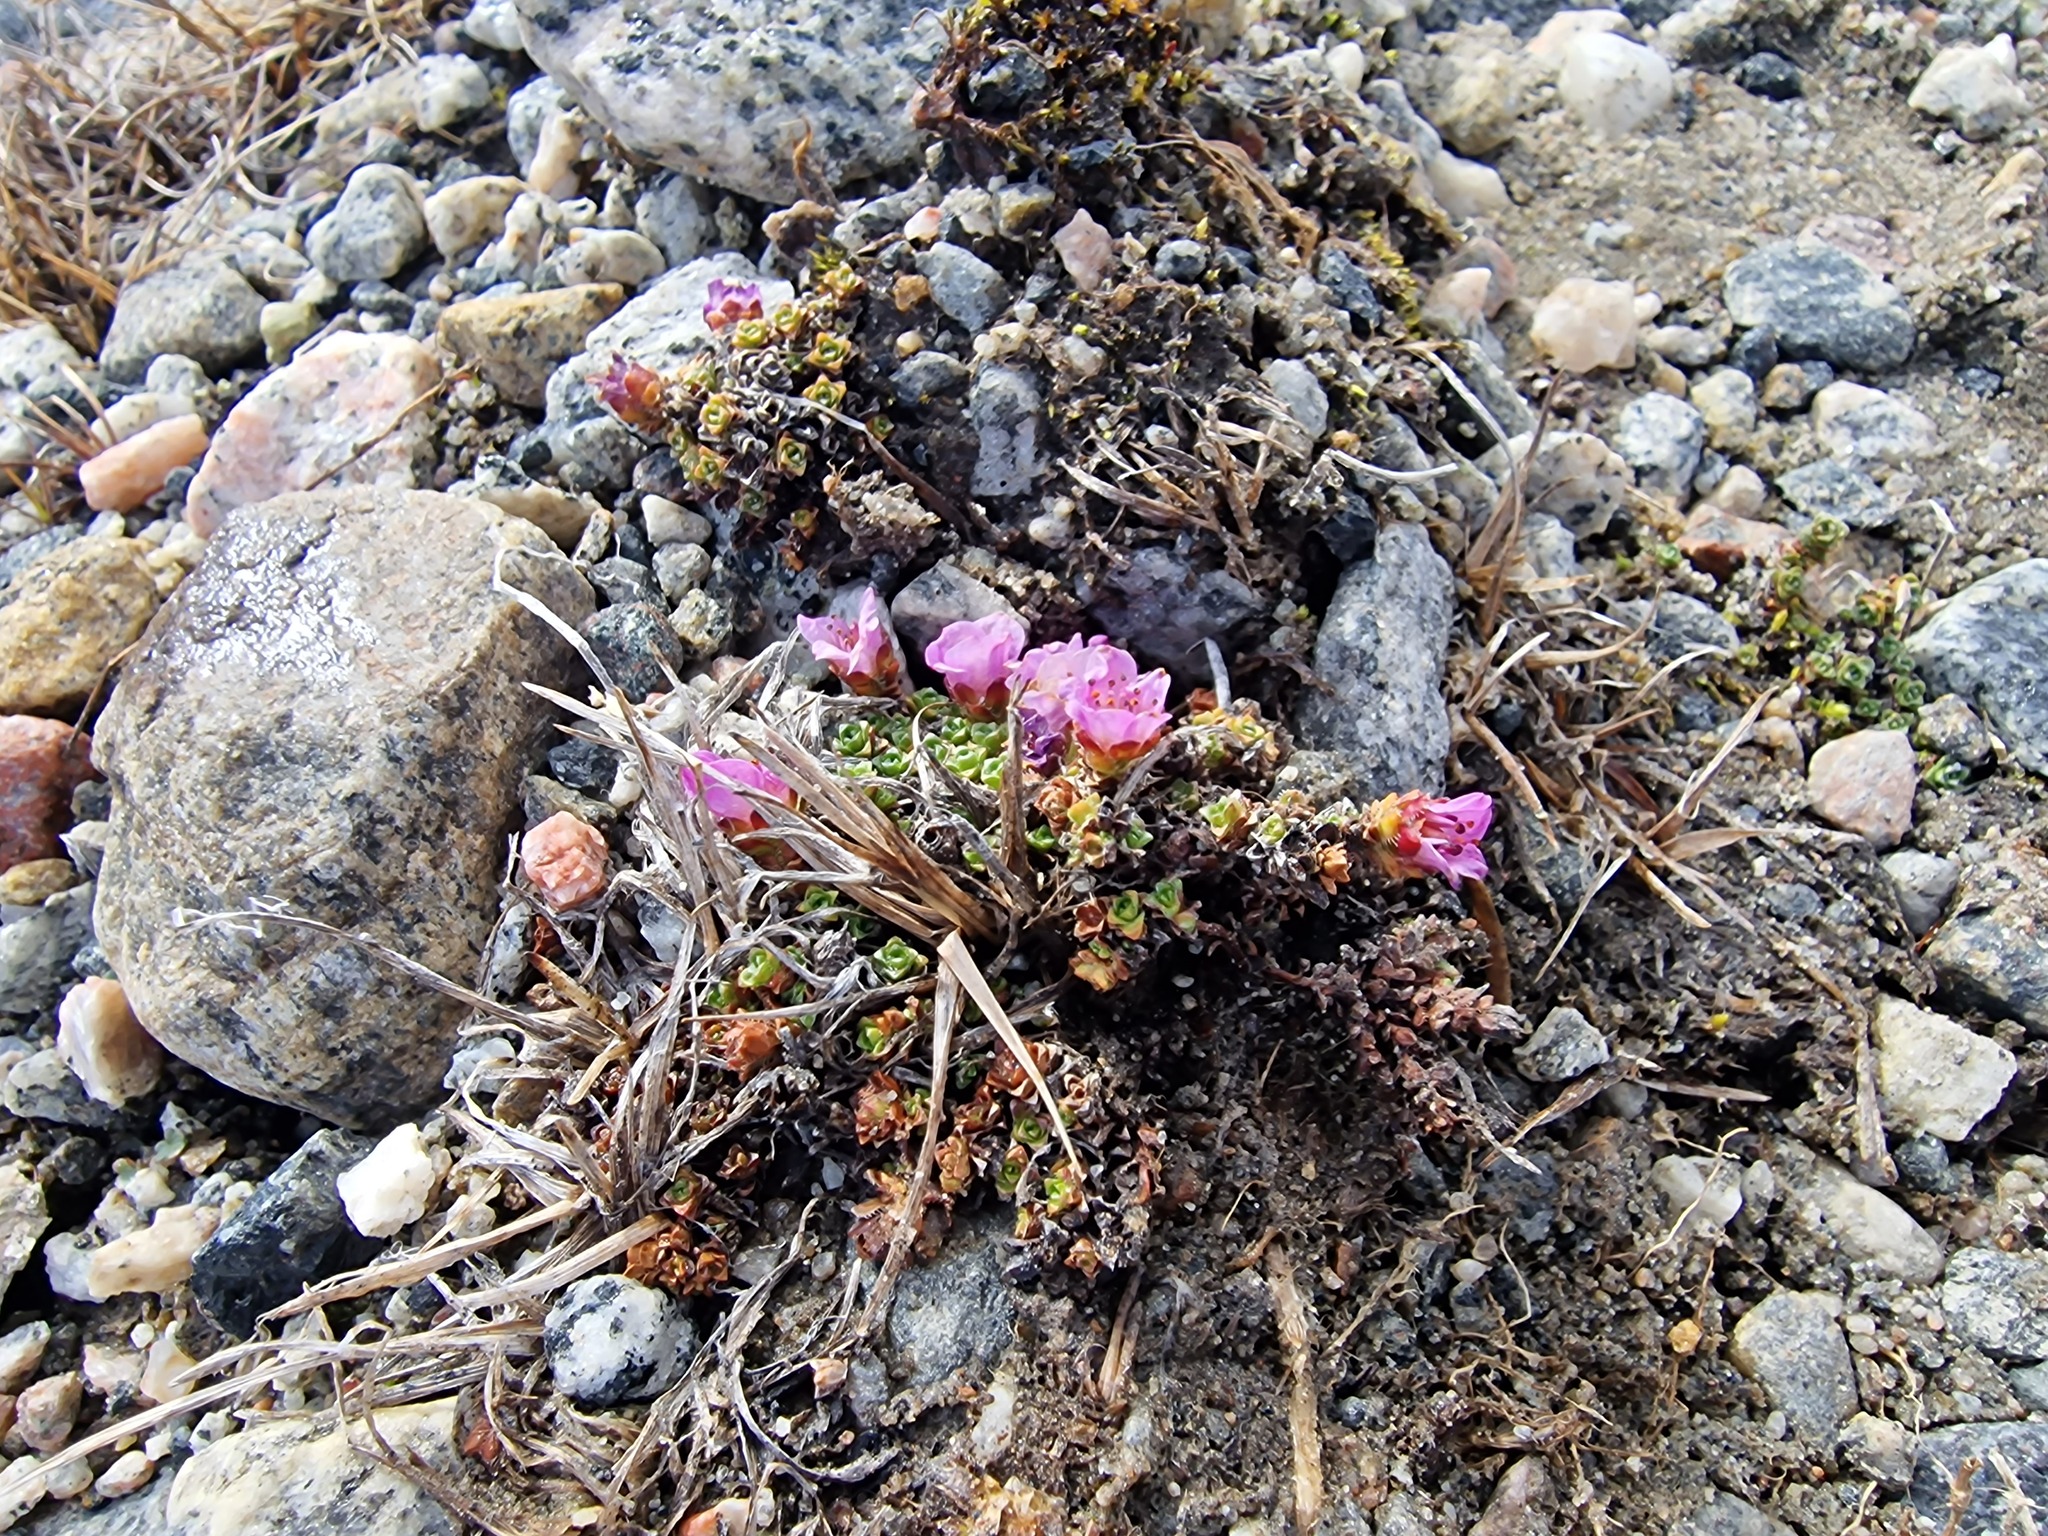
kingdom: Plantae
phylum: Tracheophyta
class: Magnoliopsida
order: Saxifragales
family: Saxifragaceae
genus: Saxifraga
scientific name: Saxifraga oppositifolia
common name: Purple saxifrage
